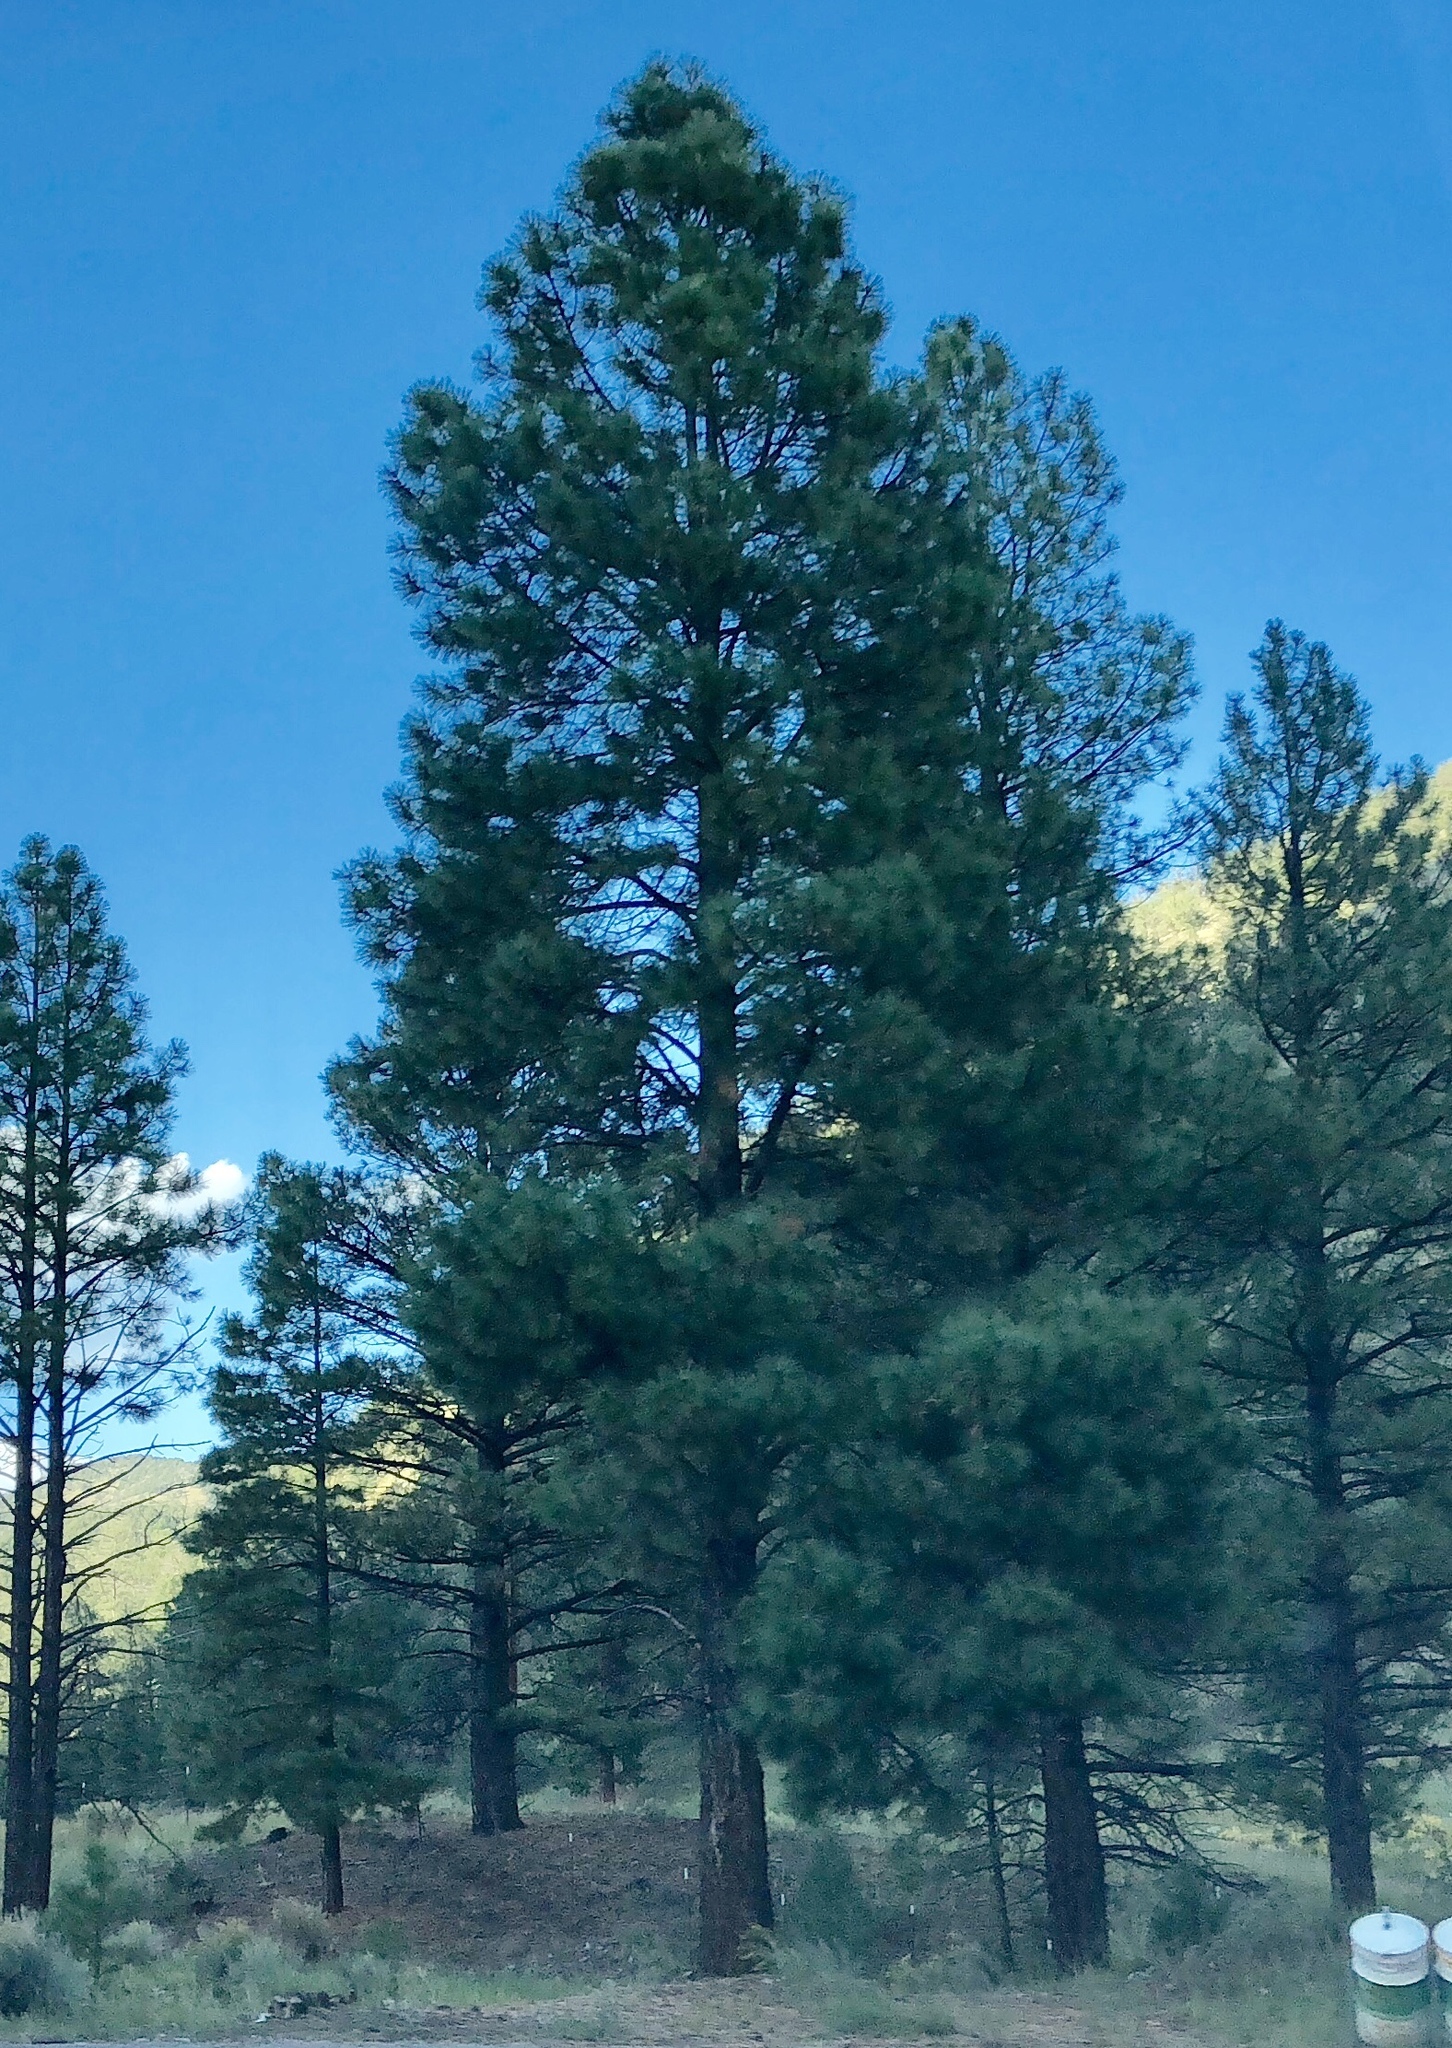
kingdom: Plantae
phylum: Tracheophyta
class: Pinopsida
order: Pinales
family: Pinaceae
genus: Pinus
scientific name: Pinus ponderosa
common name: Western yellow-pine
